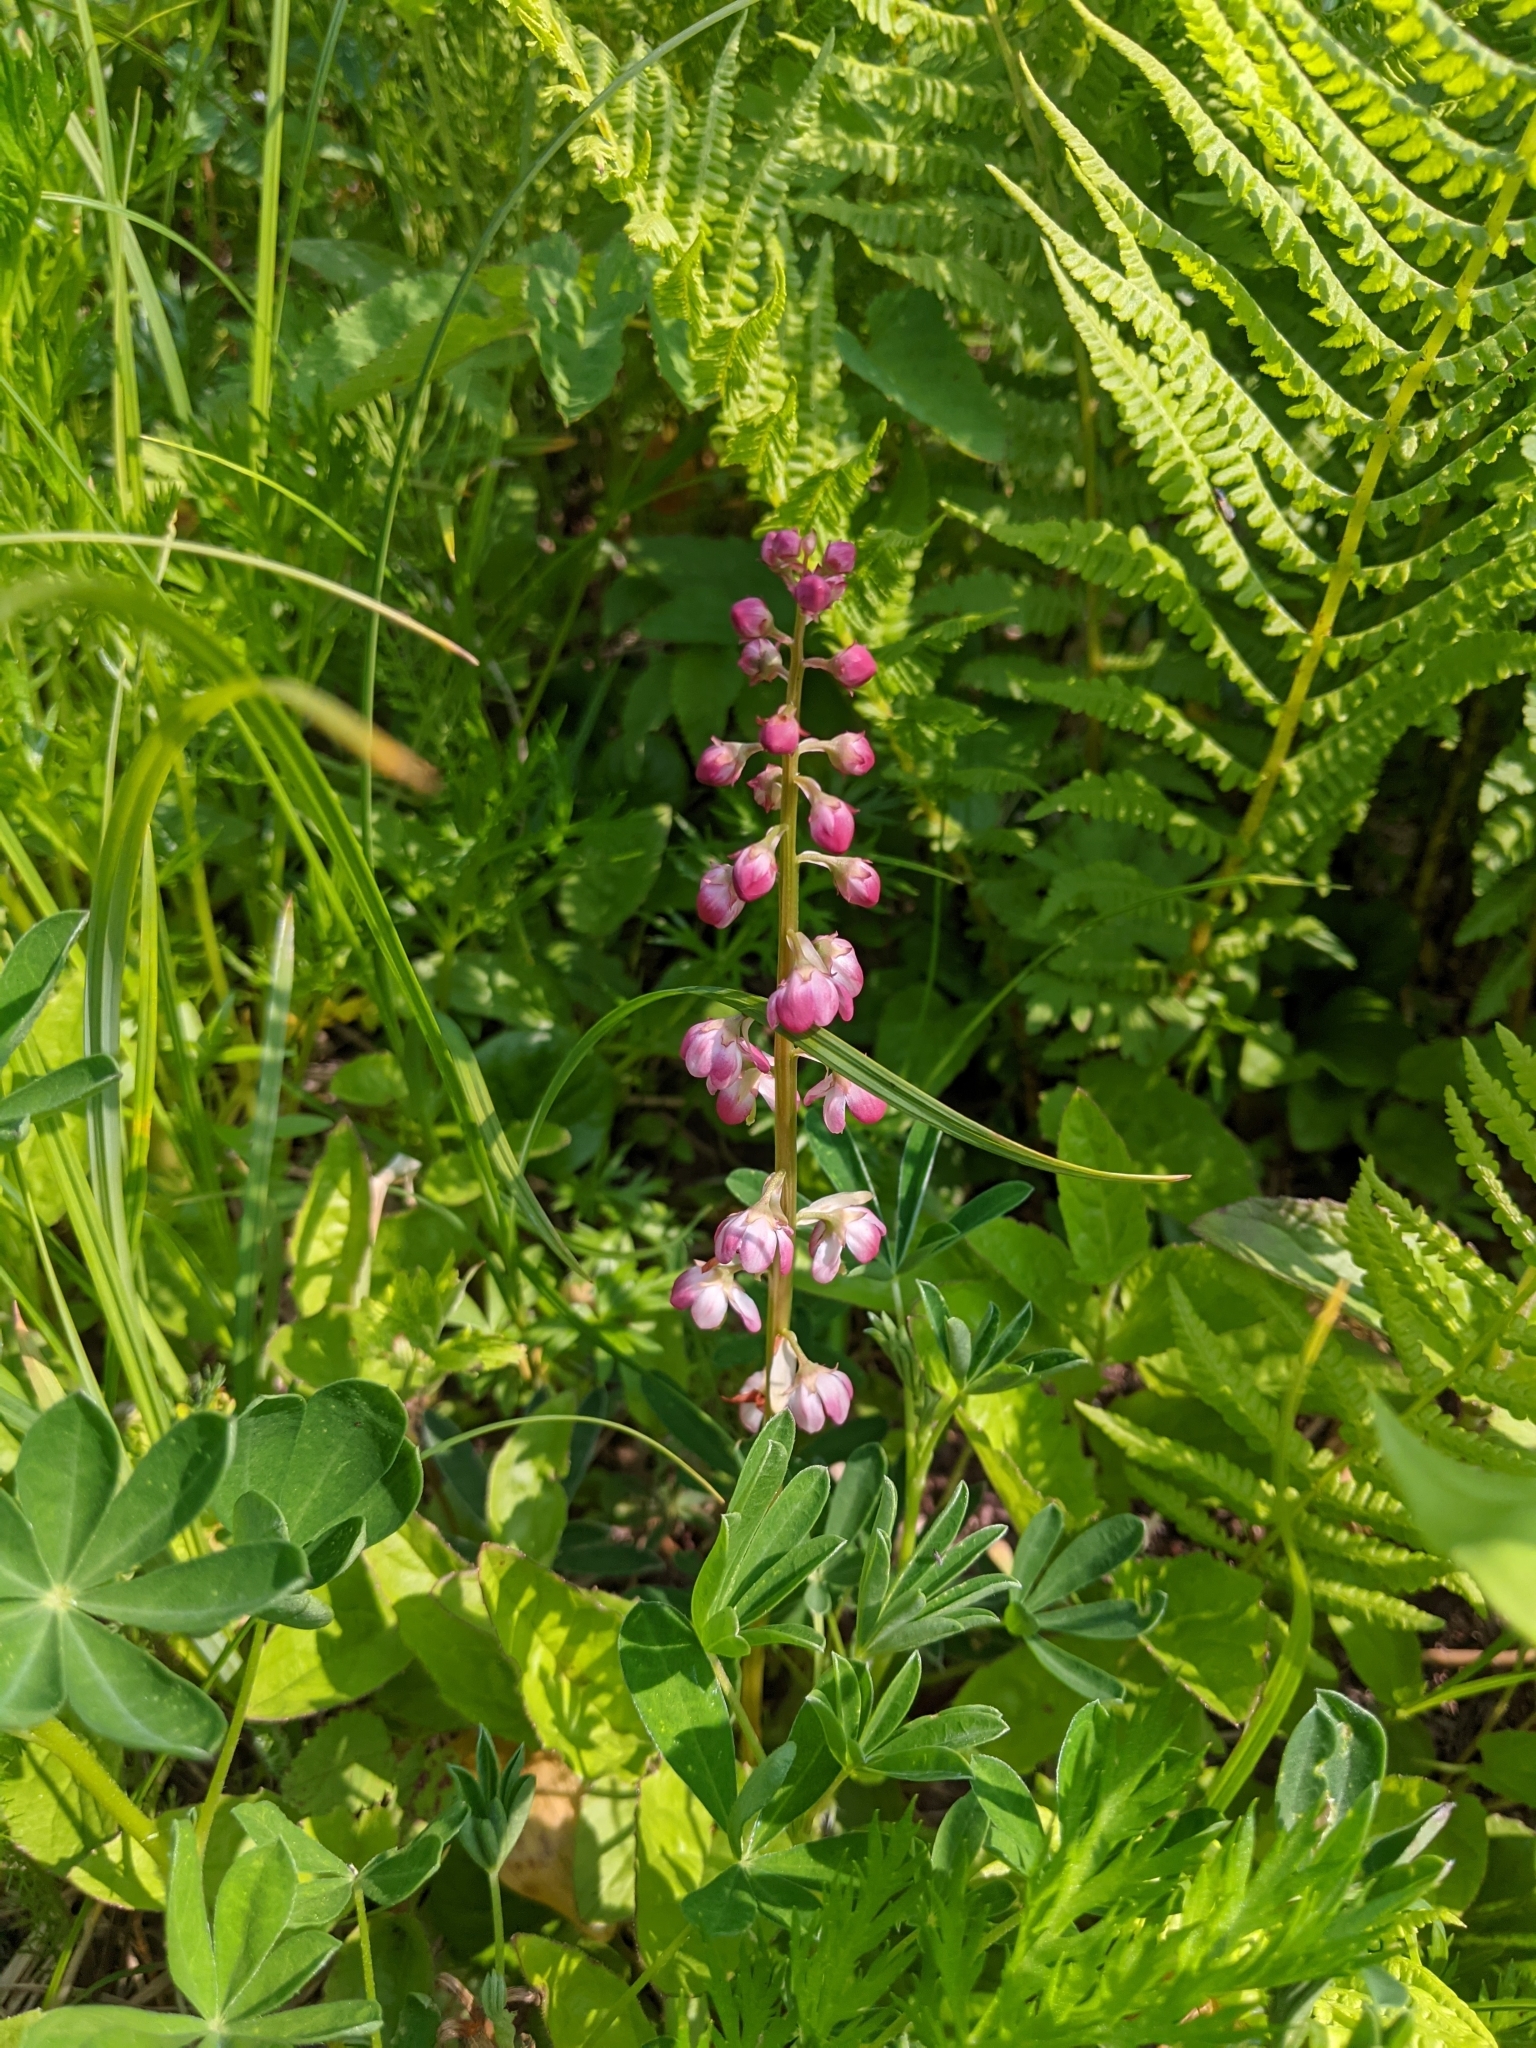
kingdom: Plantae
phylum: Tracheophyta
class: Magnoliopsida
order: Ericales
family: Ericaceae
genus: Pyrola
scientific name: Pyrola asarifolia
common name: Bog wintergreen
